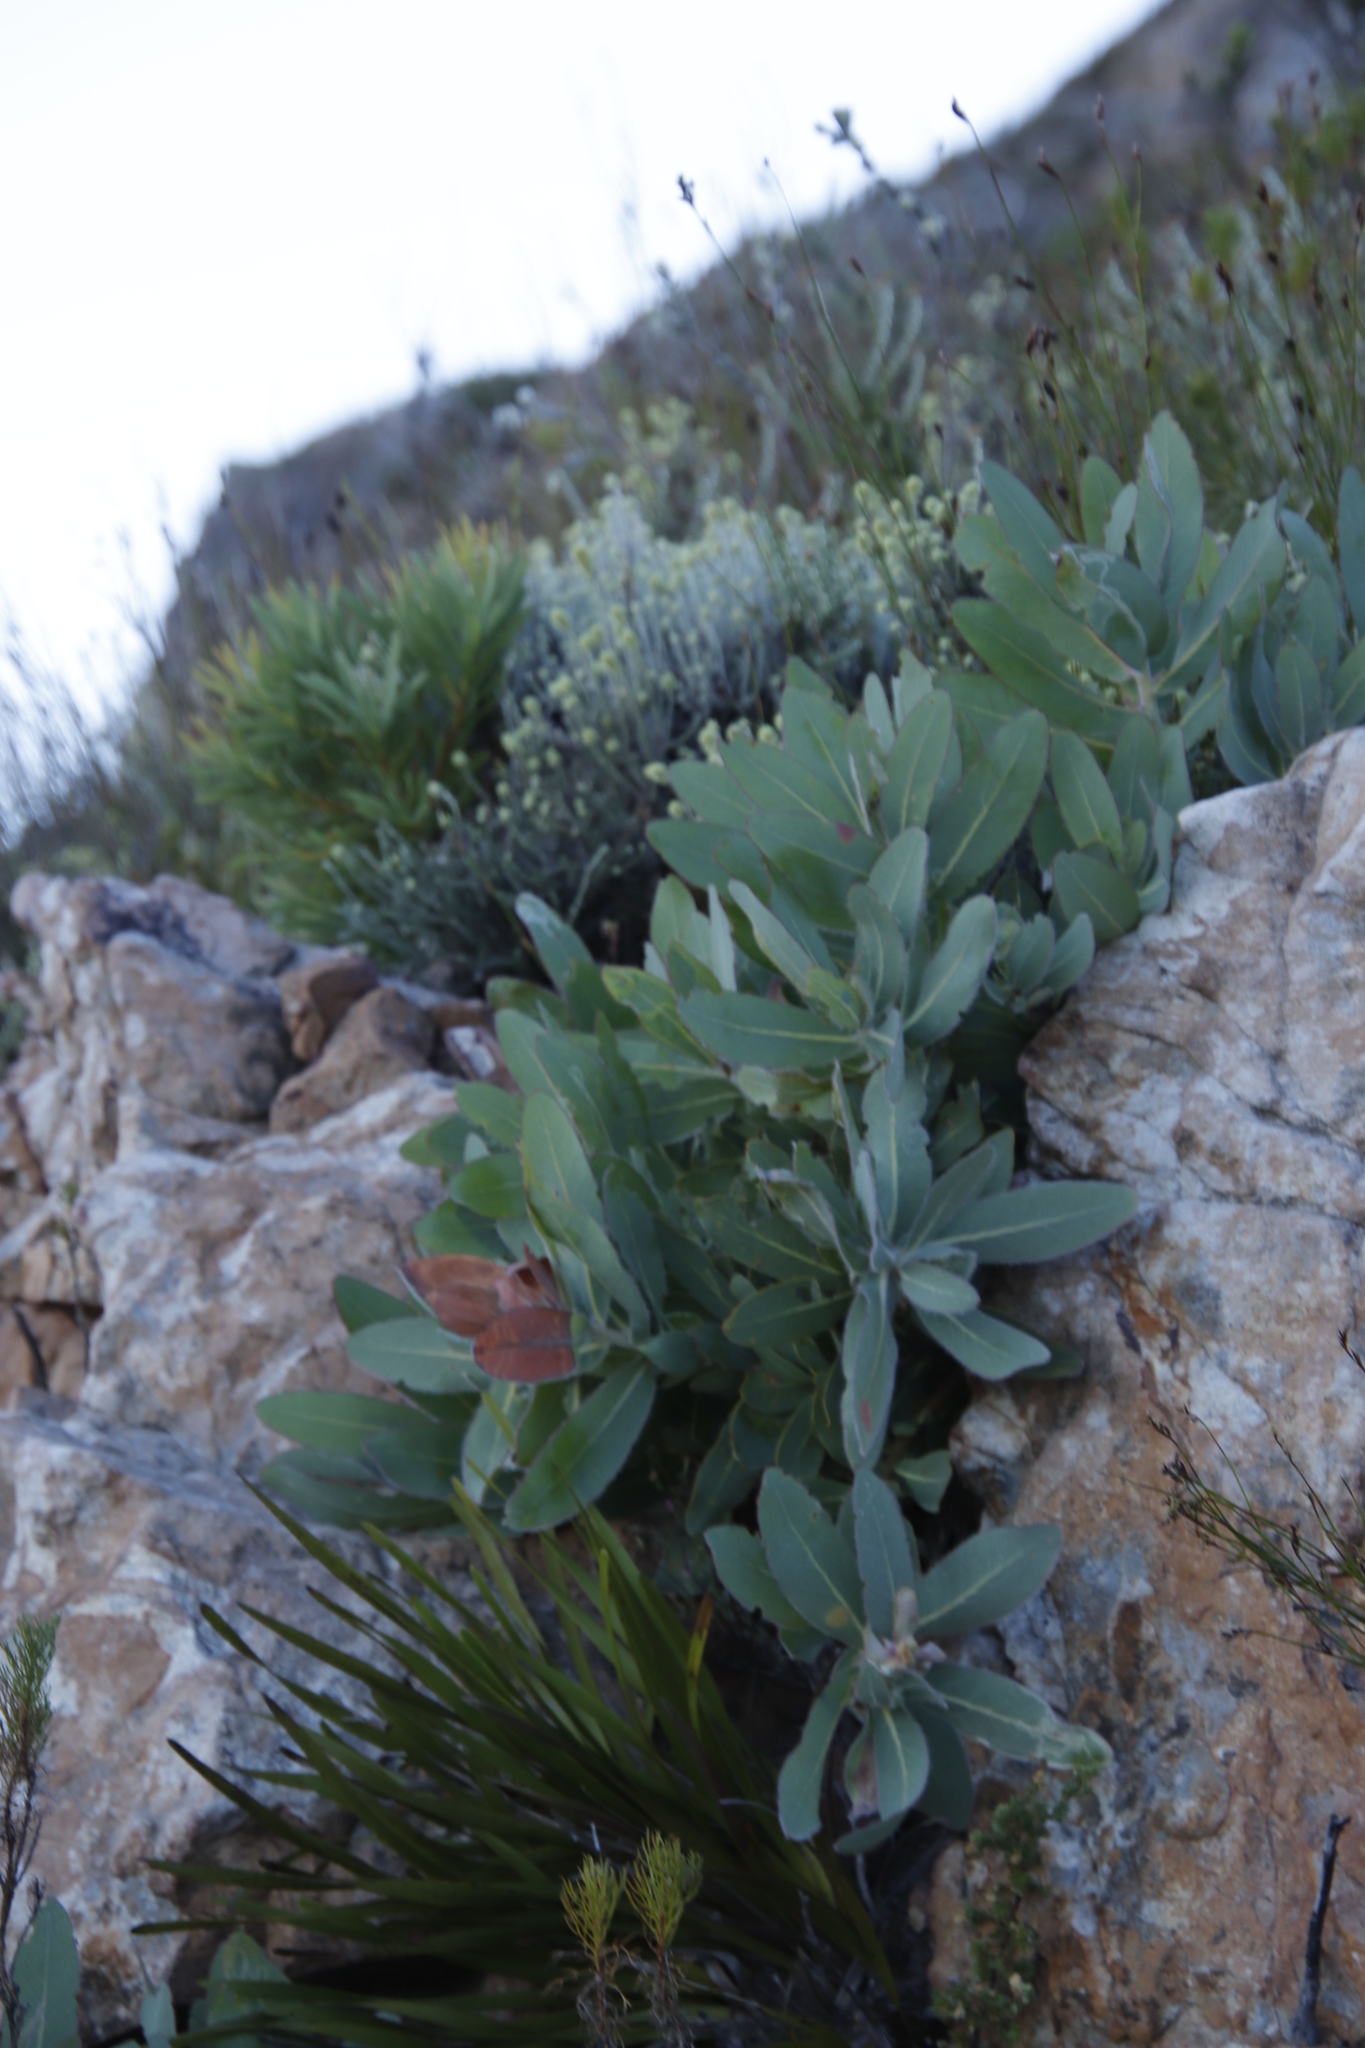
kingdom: Plantae
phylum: Tracheophyta
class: Magnoliopsida
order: Proteales
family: Proteaceae
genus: Protea
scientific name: Protea magnifica
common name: Bearded sugarbush
